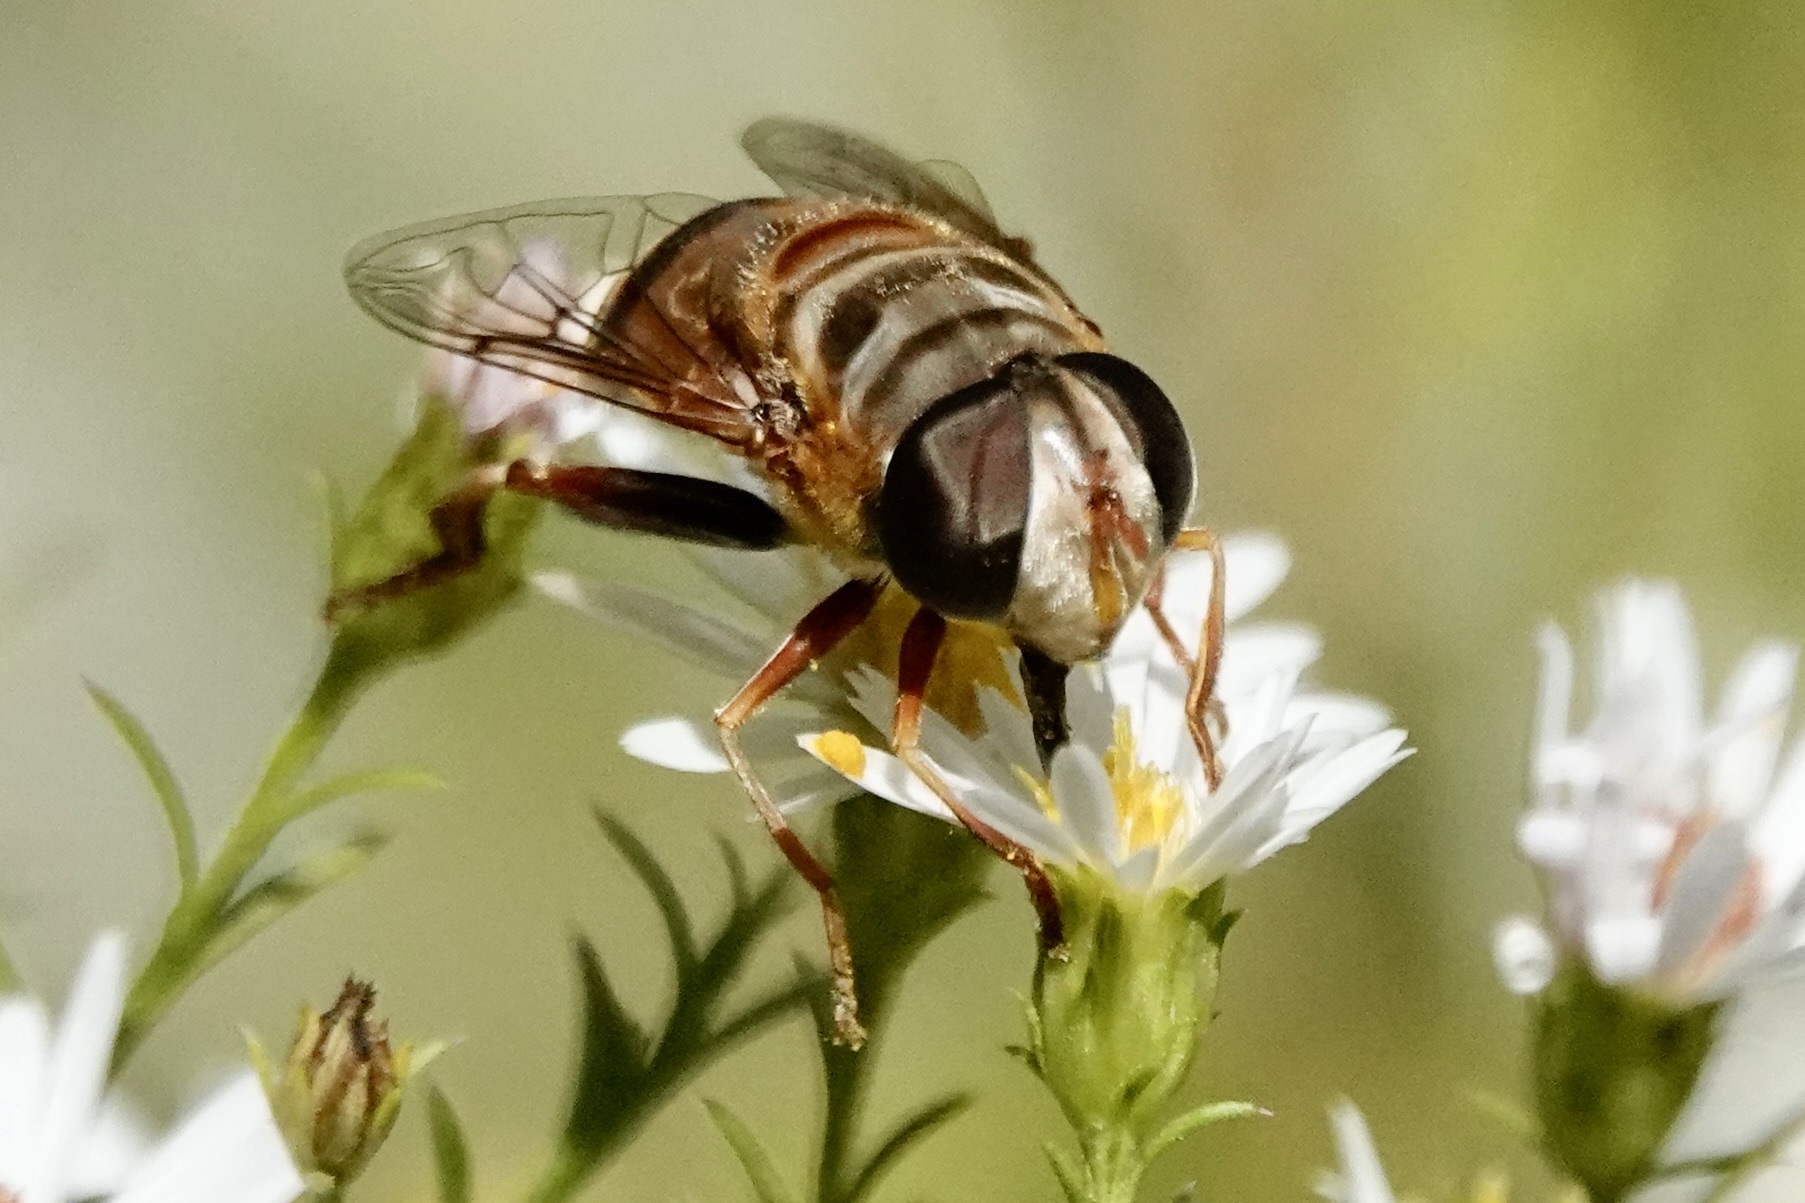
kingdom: Animalia
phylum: Arthropoda
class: Insecta
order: Diptera
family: Syrphidae
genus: Palpada
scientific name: Palpada vinetorum
